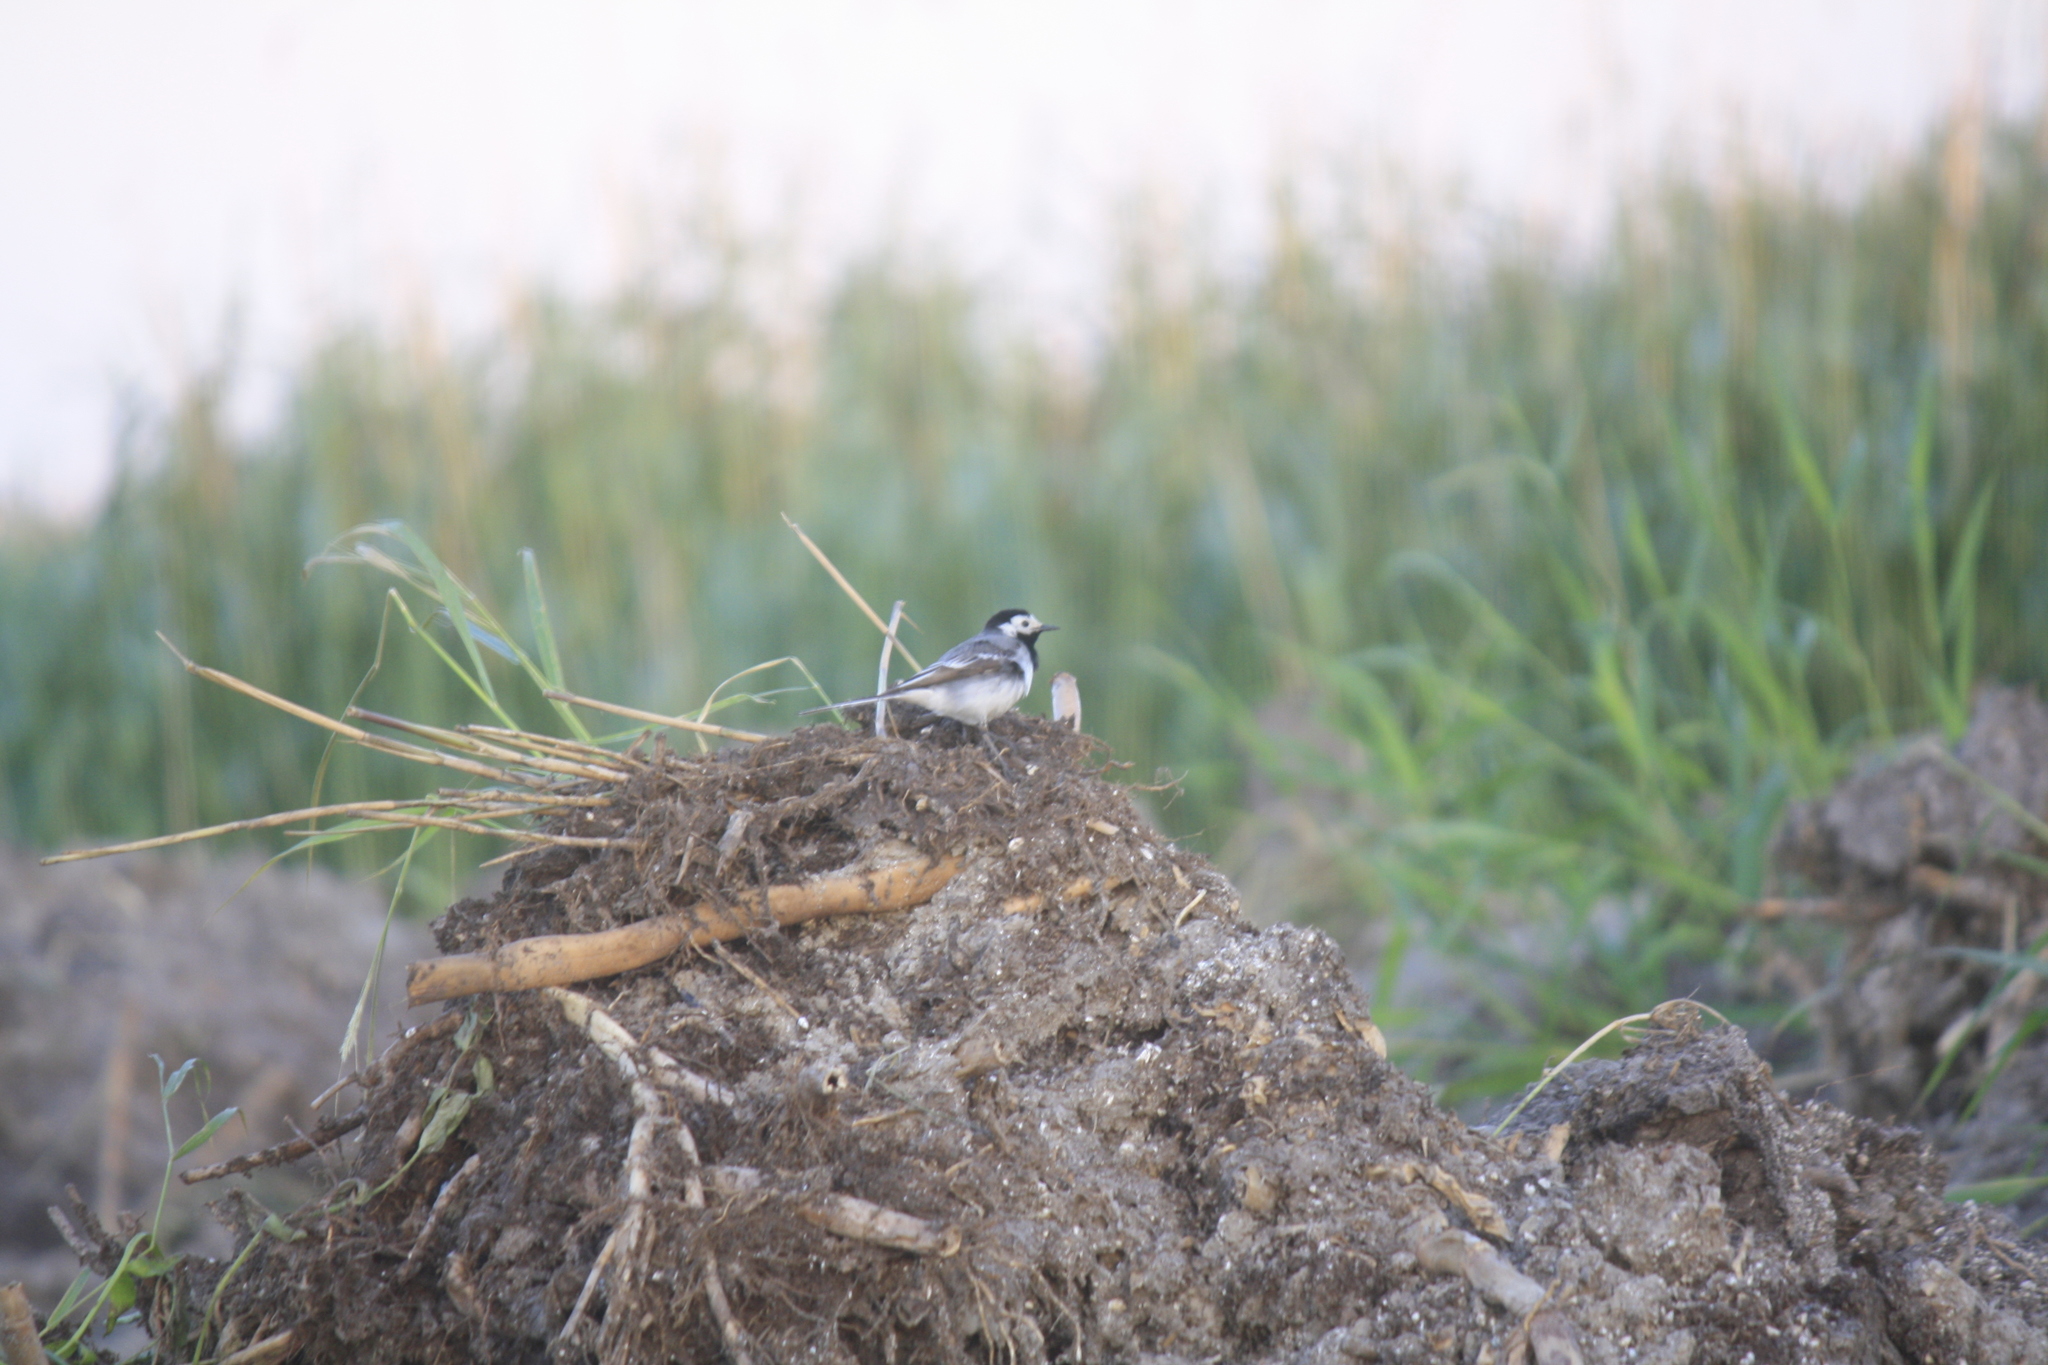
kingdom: Animalia
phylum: Chordata
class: Aves
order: Passeriformes
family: Motacillidae
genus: Motacilla
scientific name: Motacilla alba
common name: White wagtail
